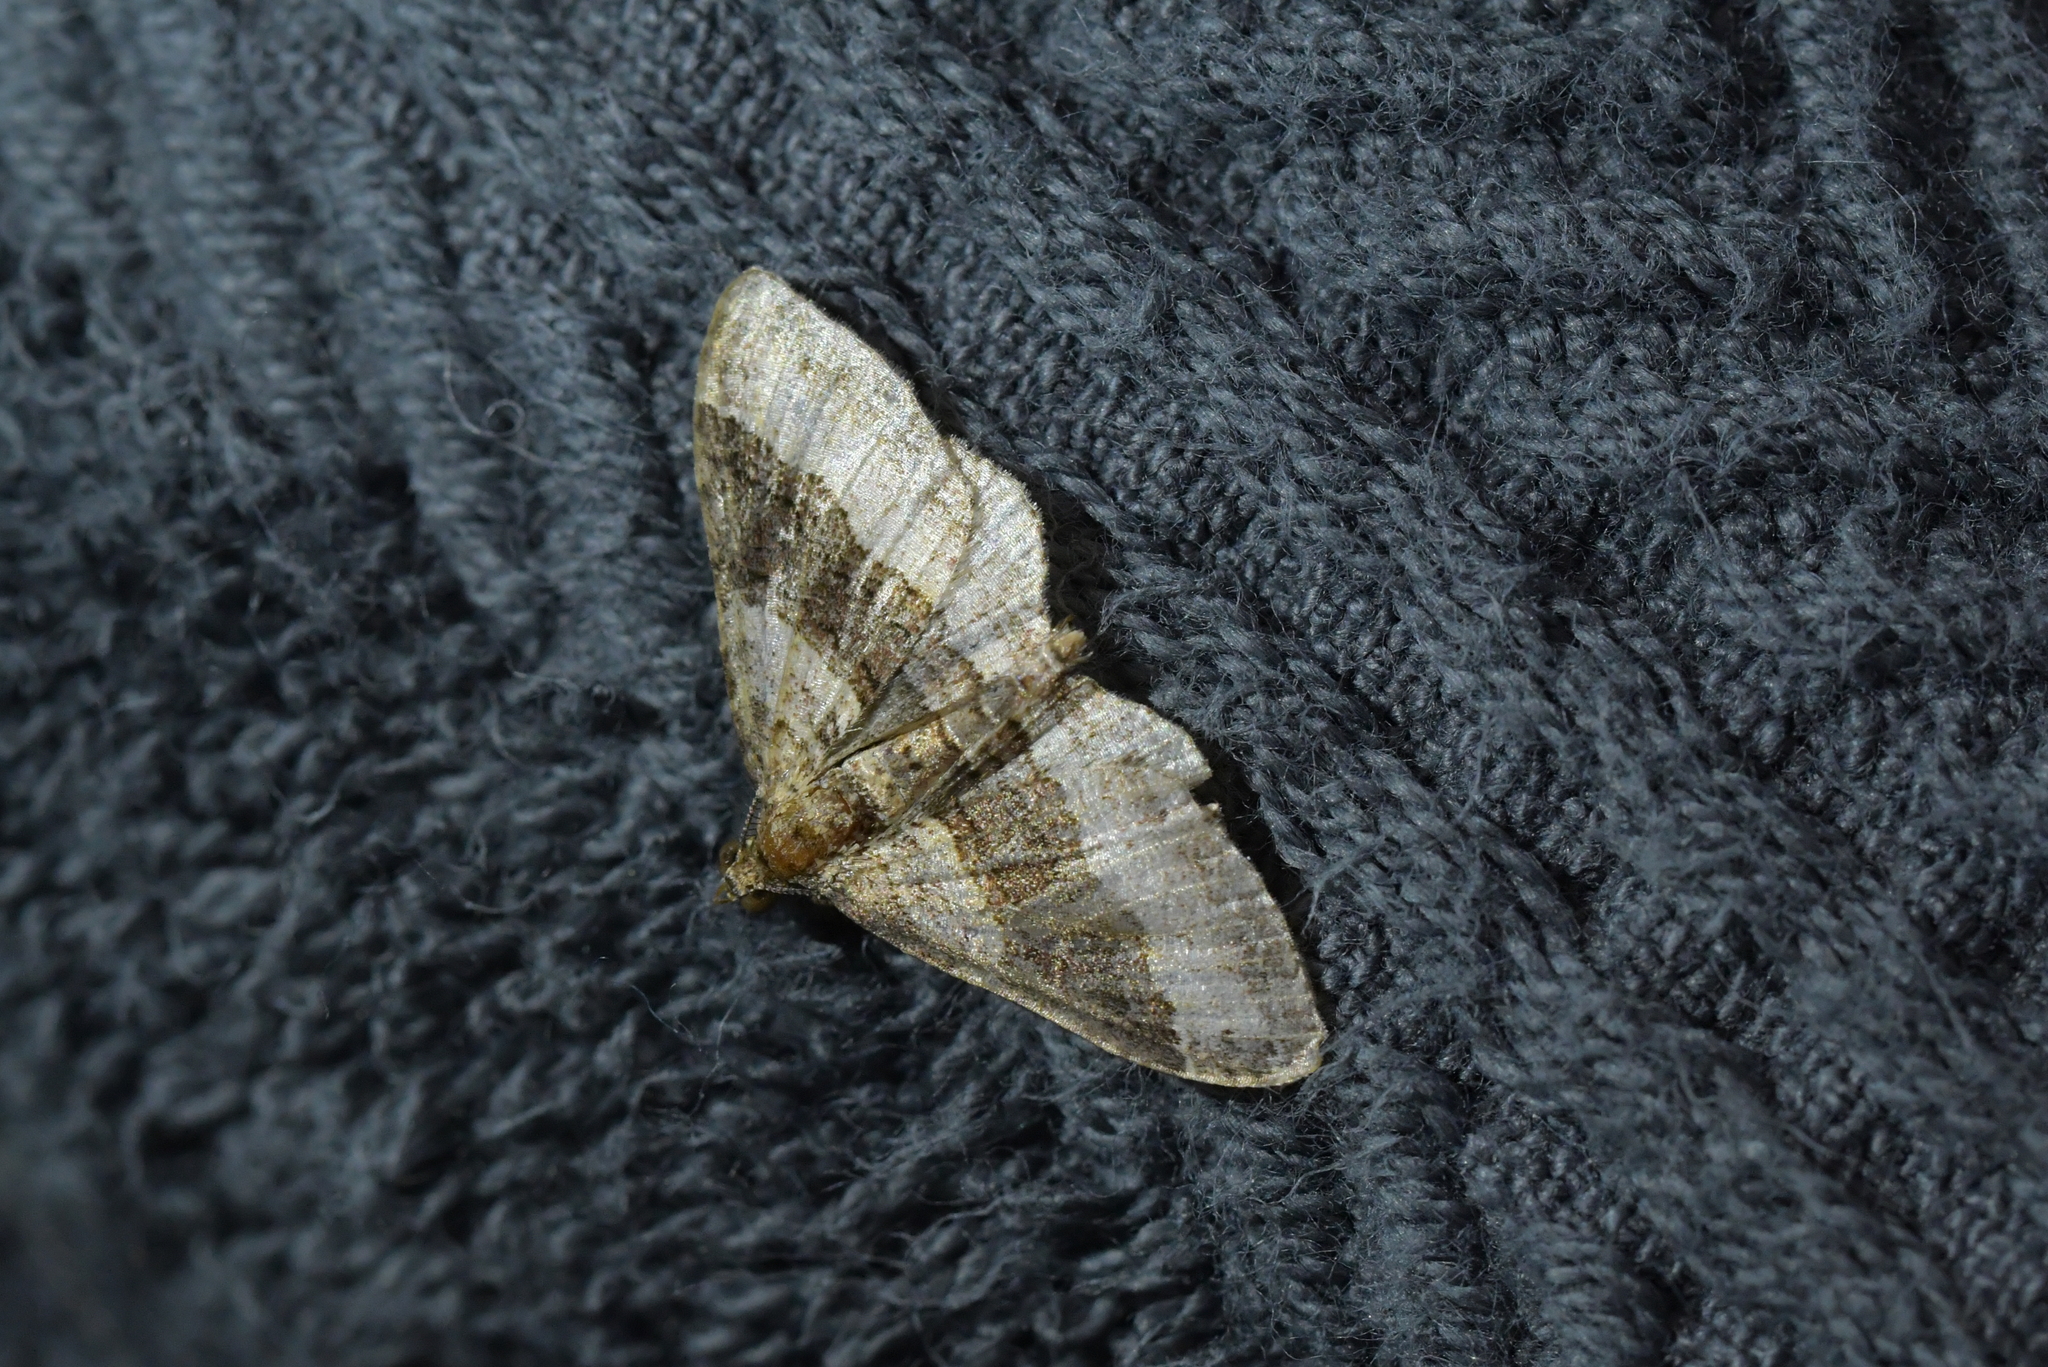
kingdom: Animalia
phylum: Arthropoda
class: Insecta
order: Lepidoptera
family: Geometridae
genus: Epyaxa
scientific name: Epyaxa lucidata
